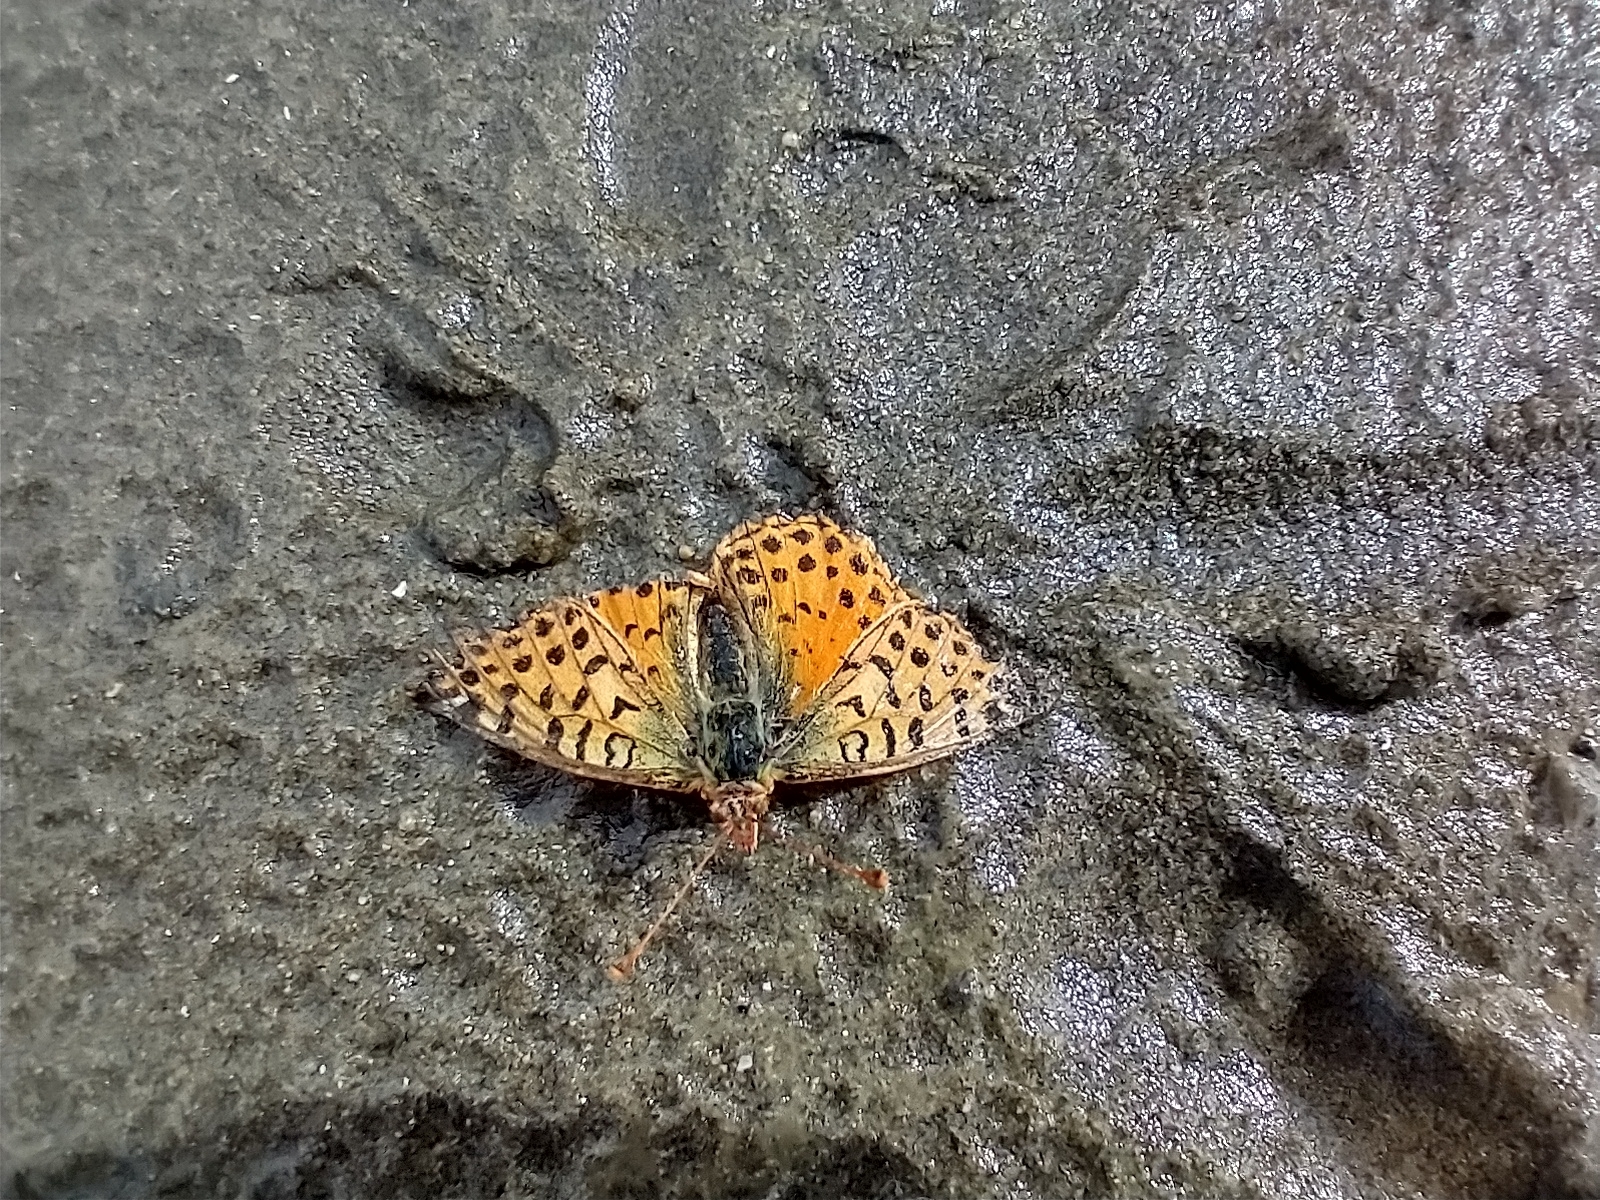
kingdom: Animalia
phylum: Arthropoda
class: Insecta
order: Lepidoptera
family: Nymphalidae
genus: Issoria
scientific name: Issoria Yramea cytheris
